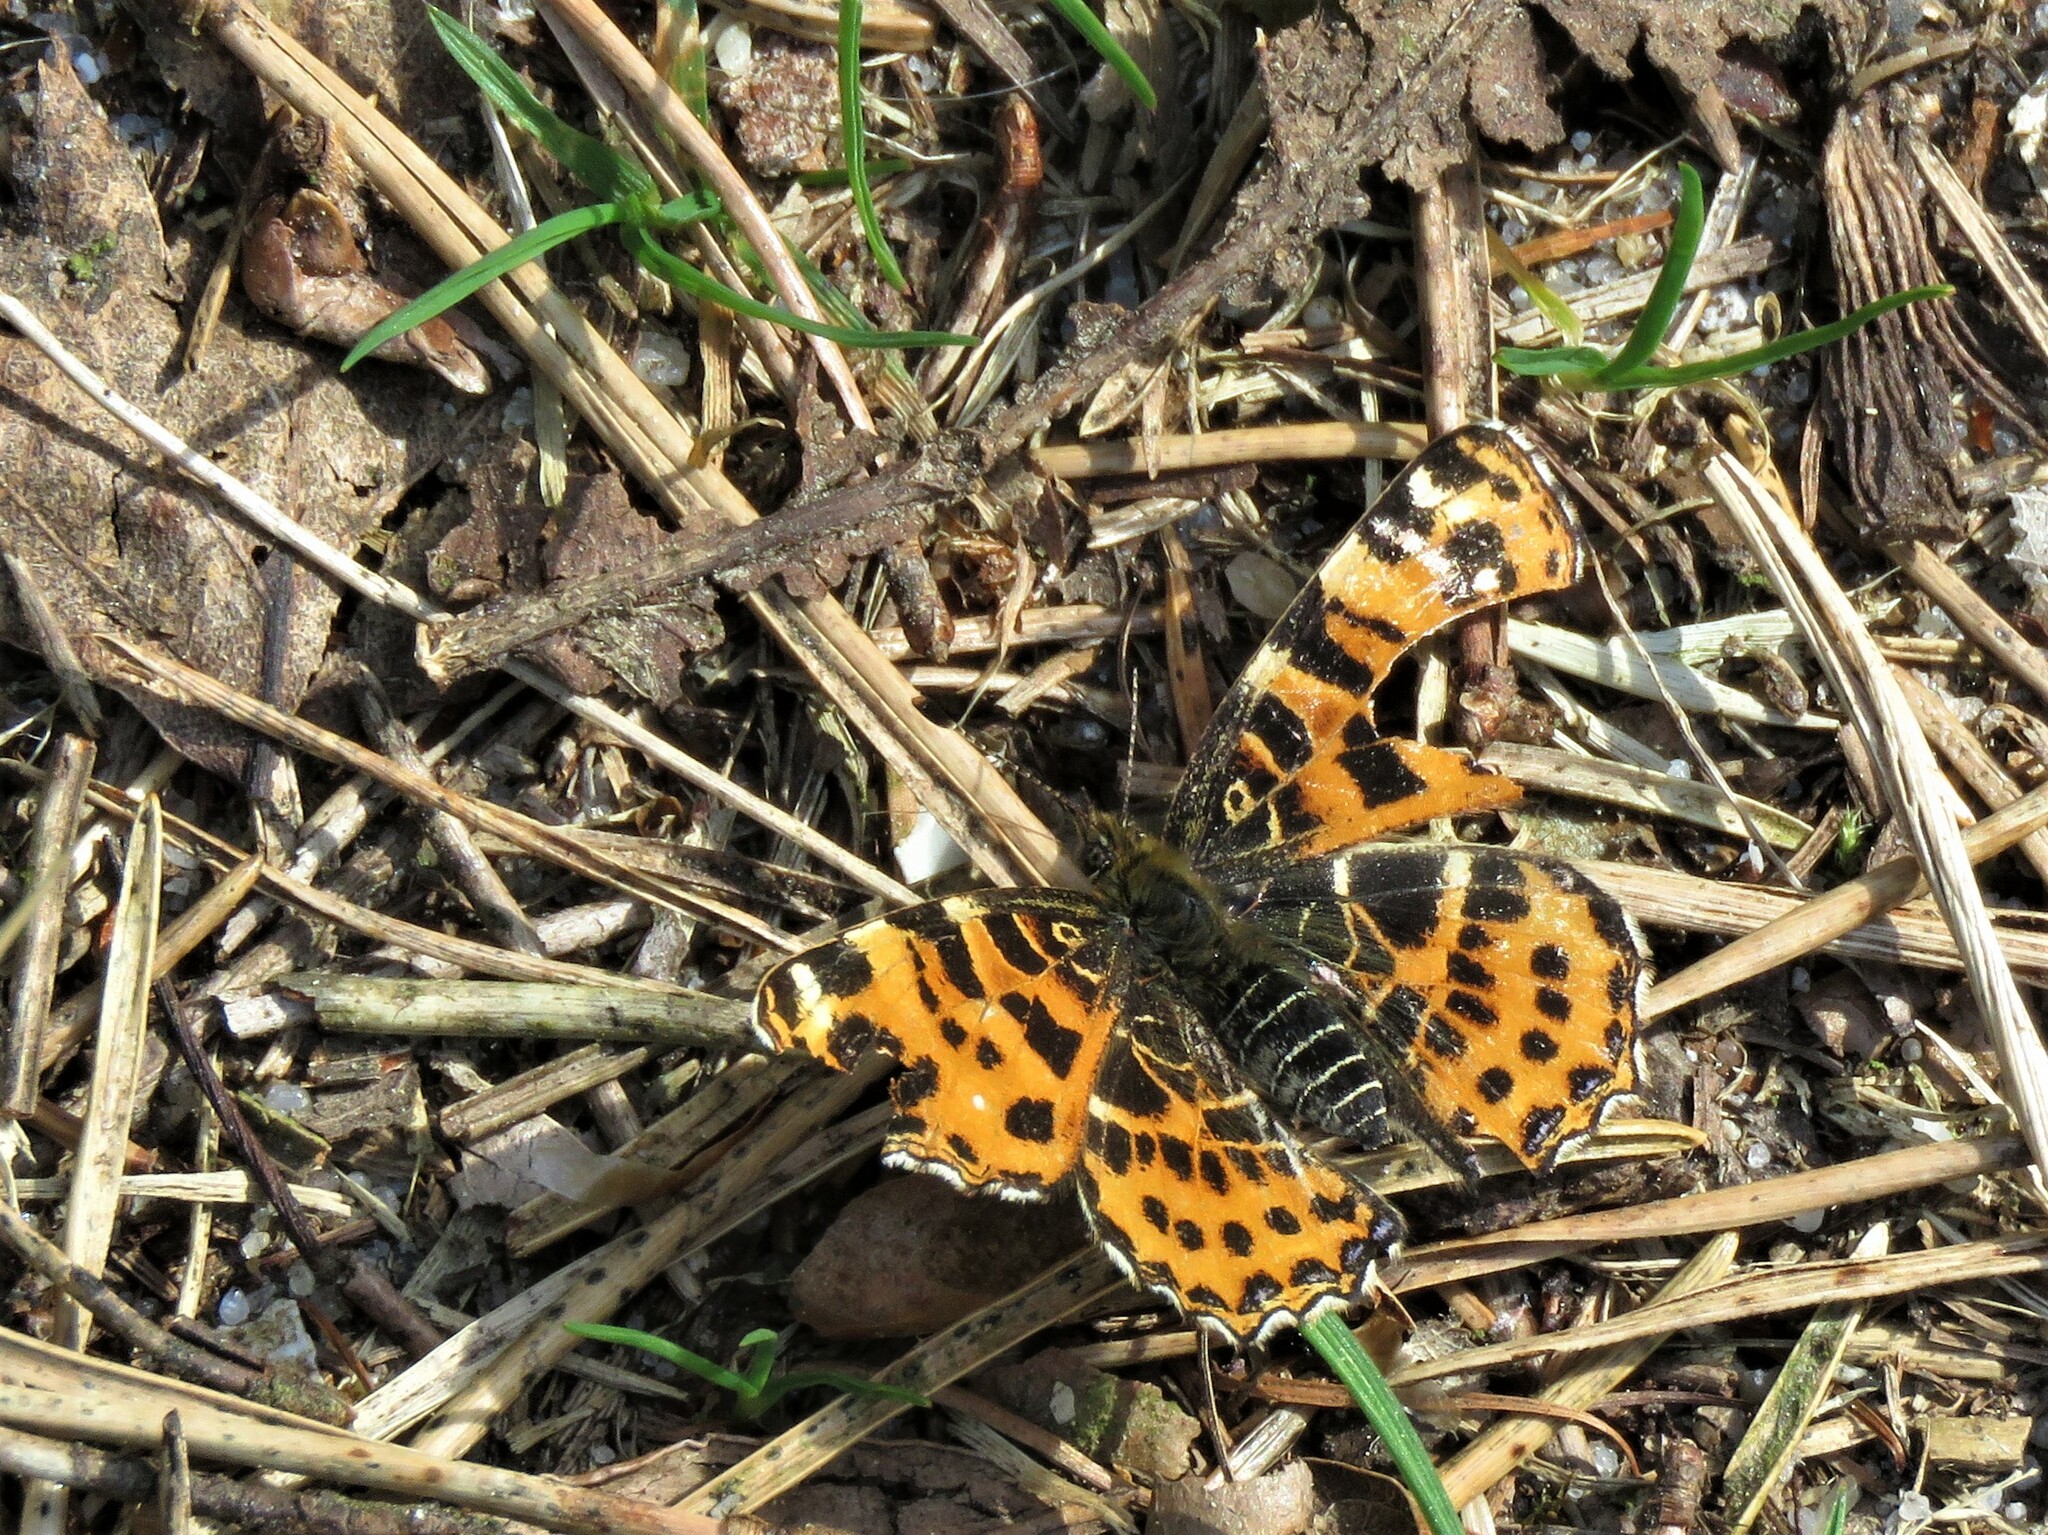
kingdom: Animalia
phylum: Arthropoda
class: Insecta
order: Lepidoptera
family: Nymphalidae
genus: Araschnia
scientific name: Araschnia levana
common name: Map butterfly
